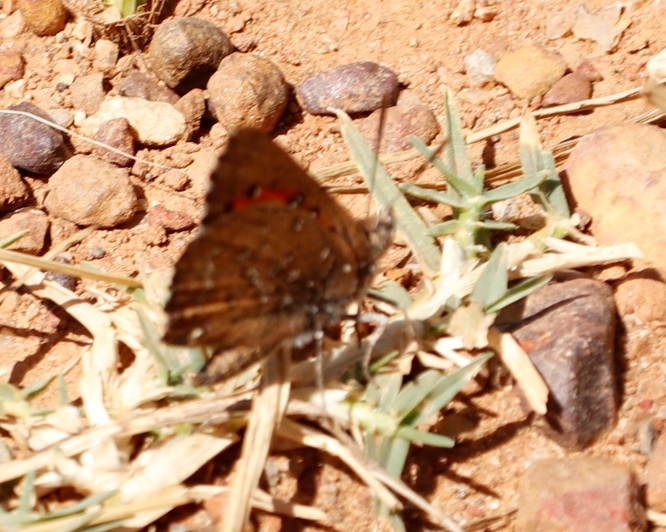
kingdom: Animalia
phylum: Arthropoda
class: Insecta
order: Lepidoptera
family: Lycaenidae
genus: Aloeides
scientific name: Aloeides thyra
